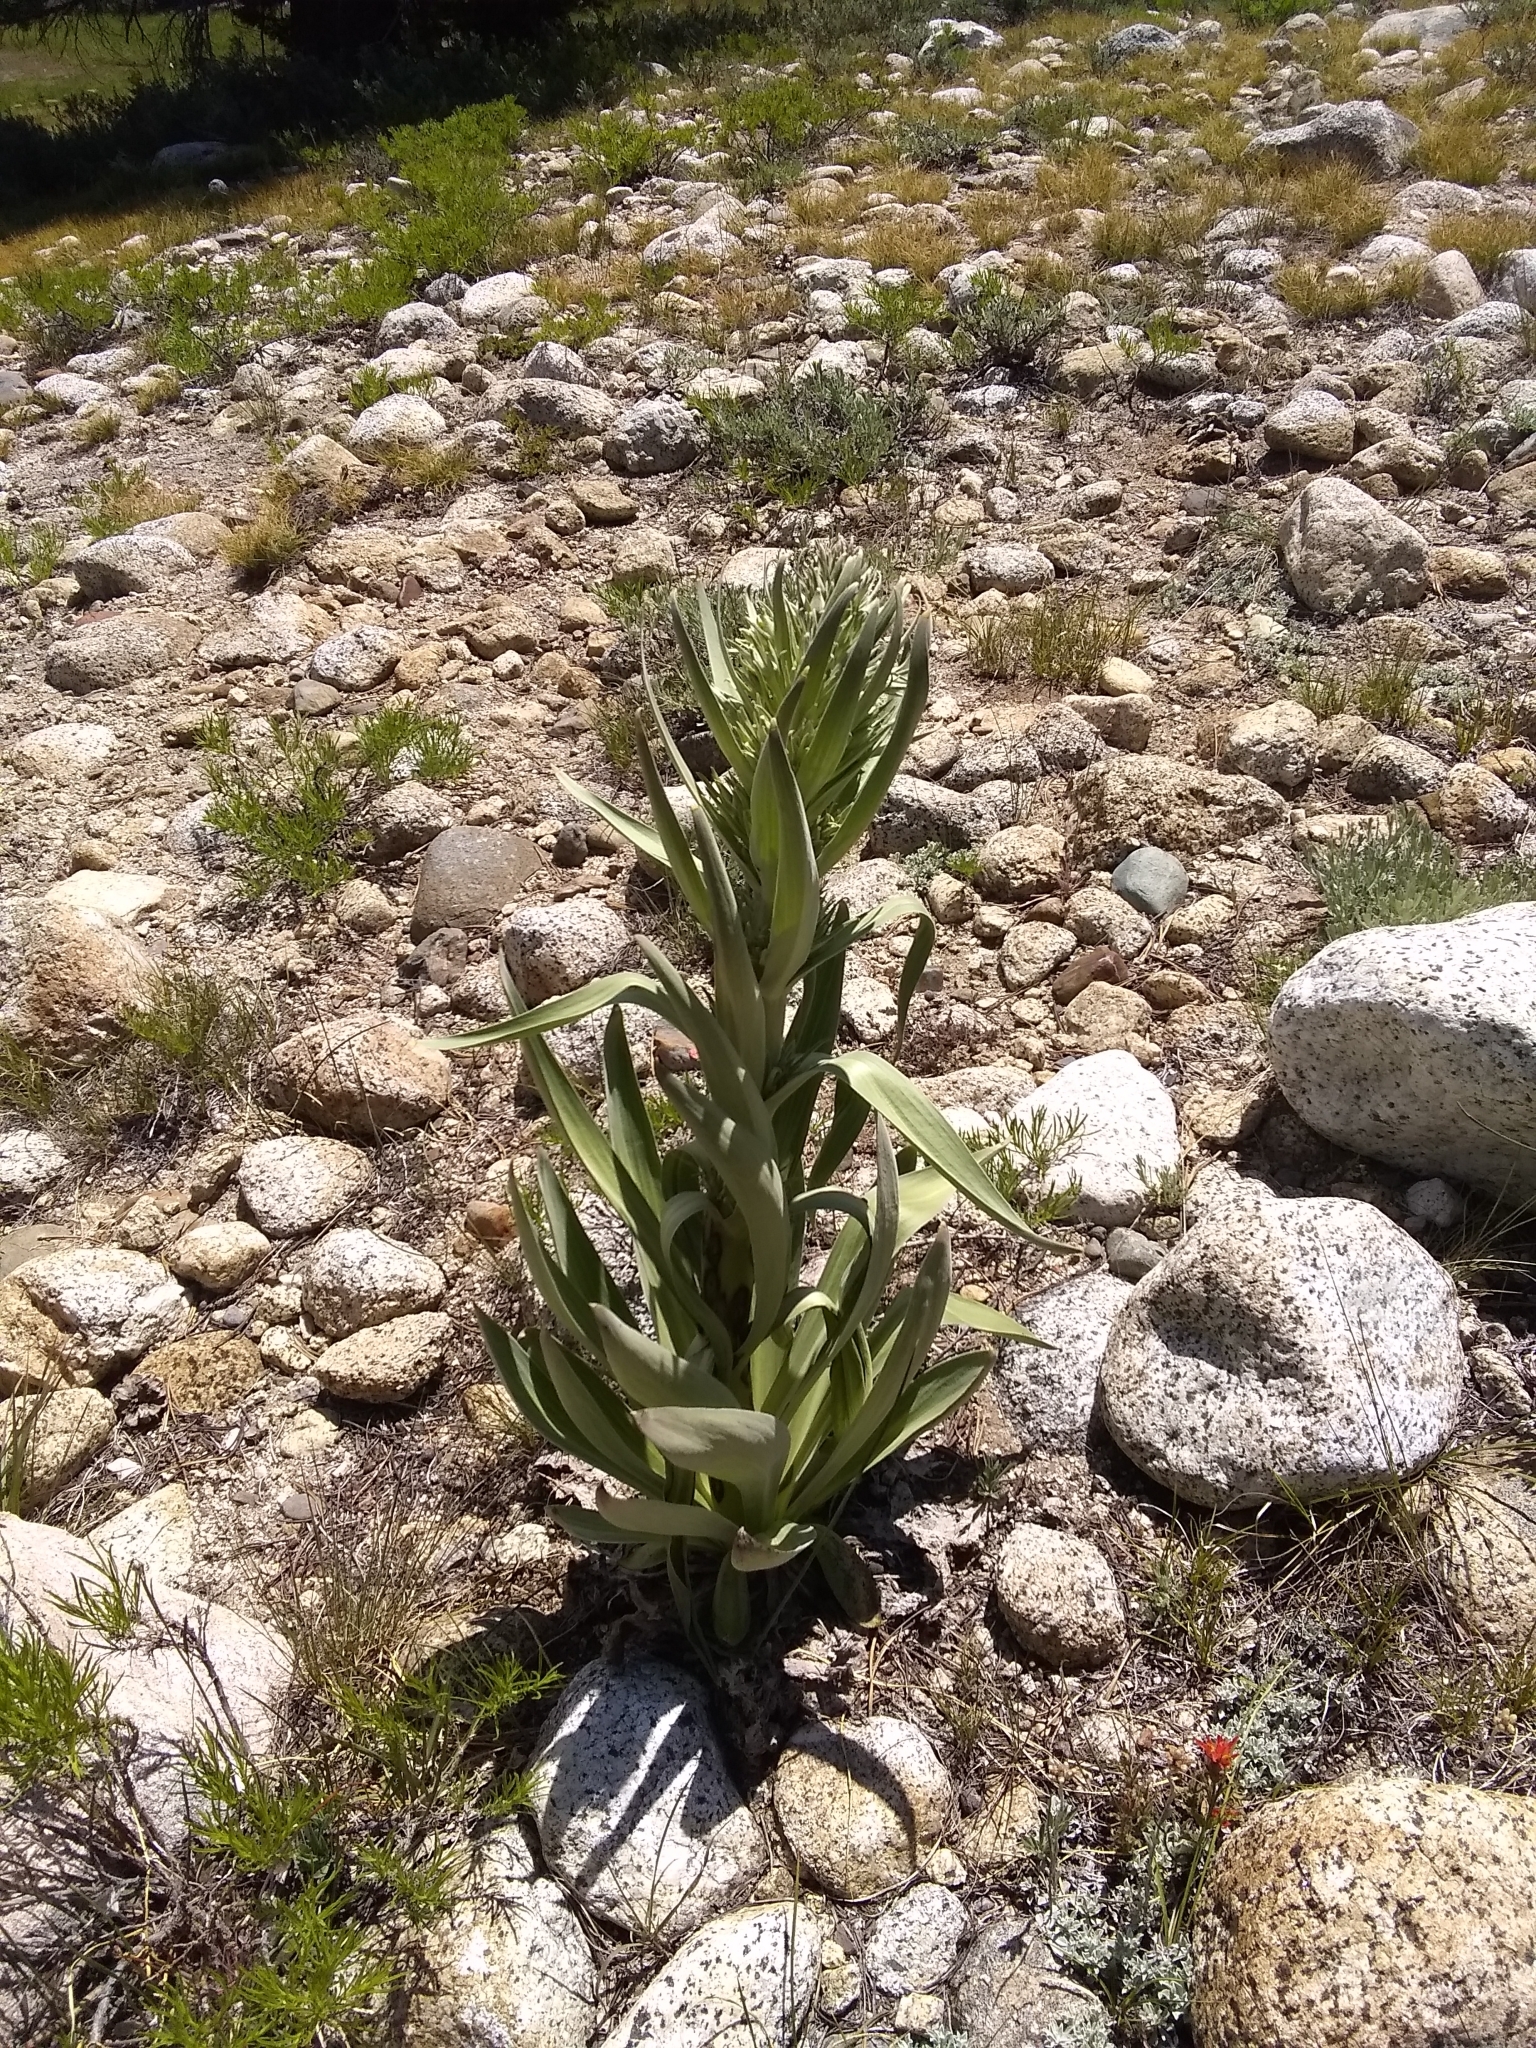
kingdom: Plantae
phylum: Tracheophyta
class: Magnoliopsida
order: Gentianales
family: Gentianaceae
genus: Frasera
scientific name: Frasera speciosa
